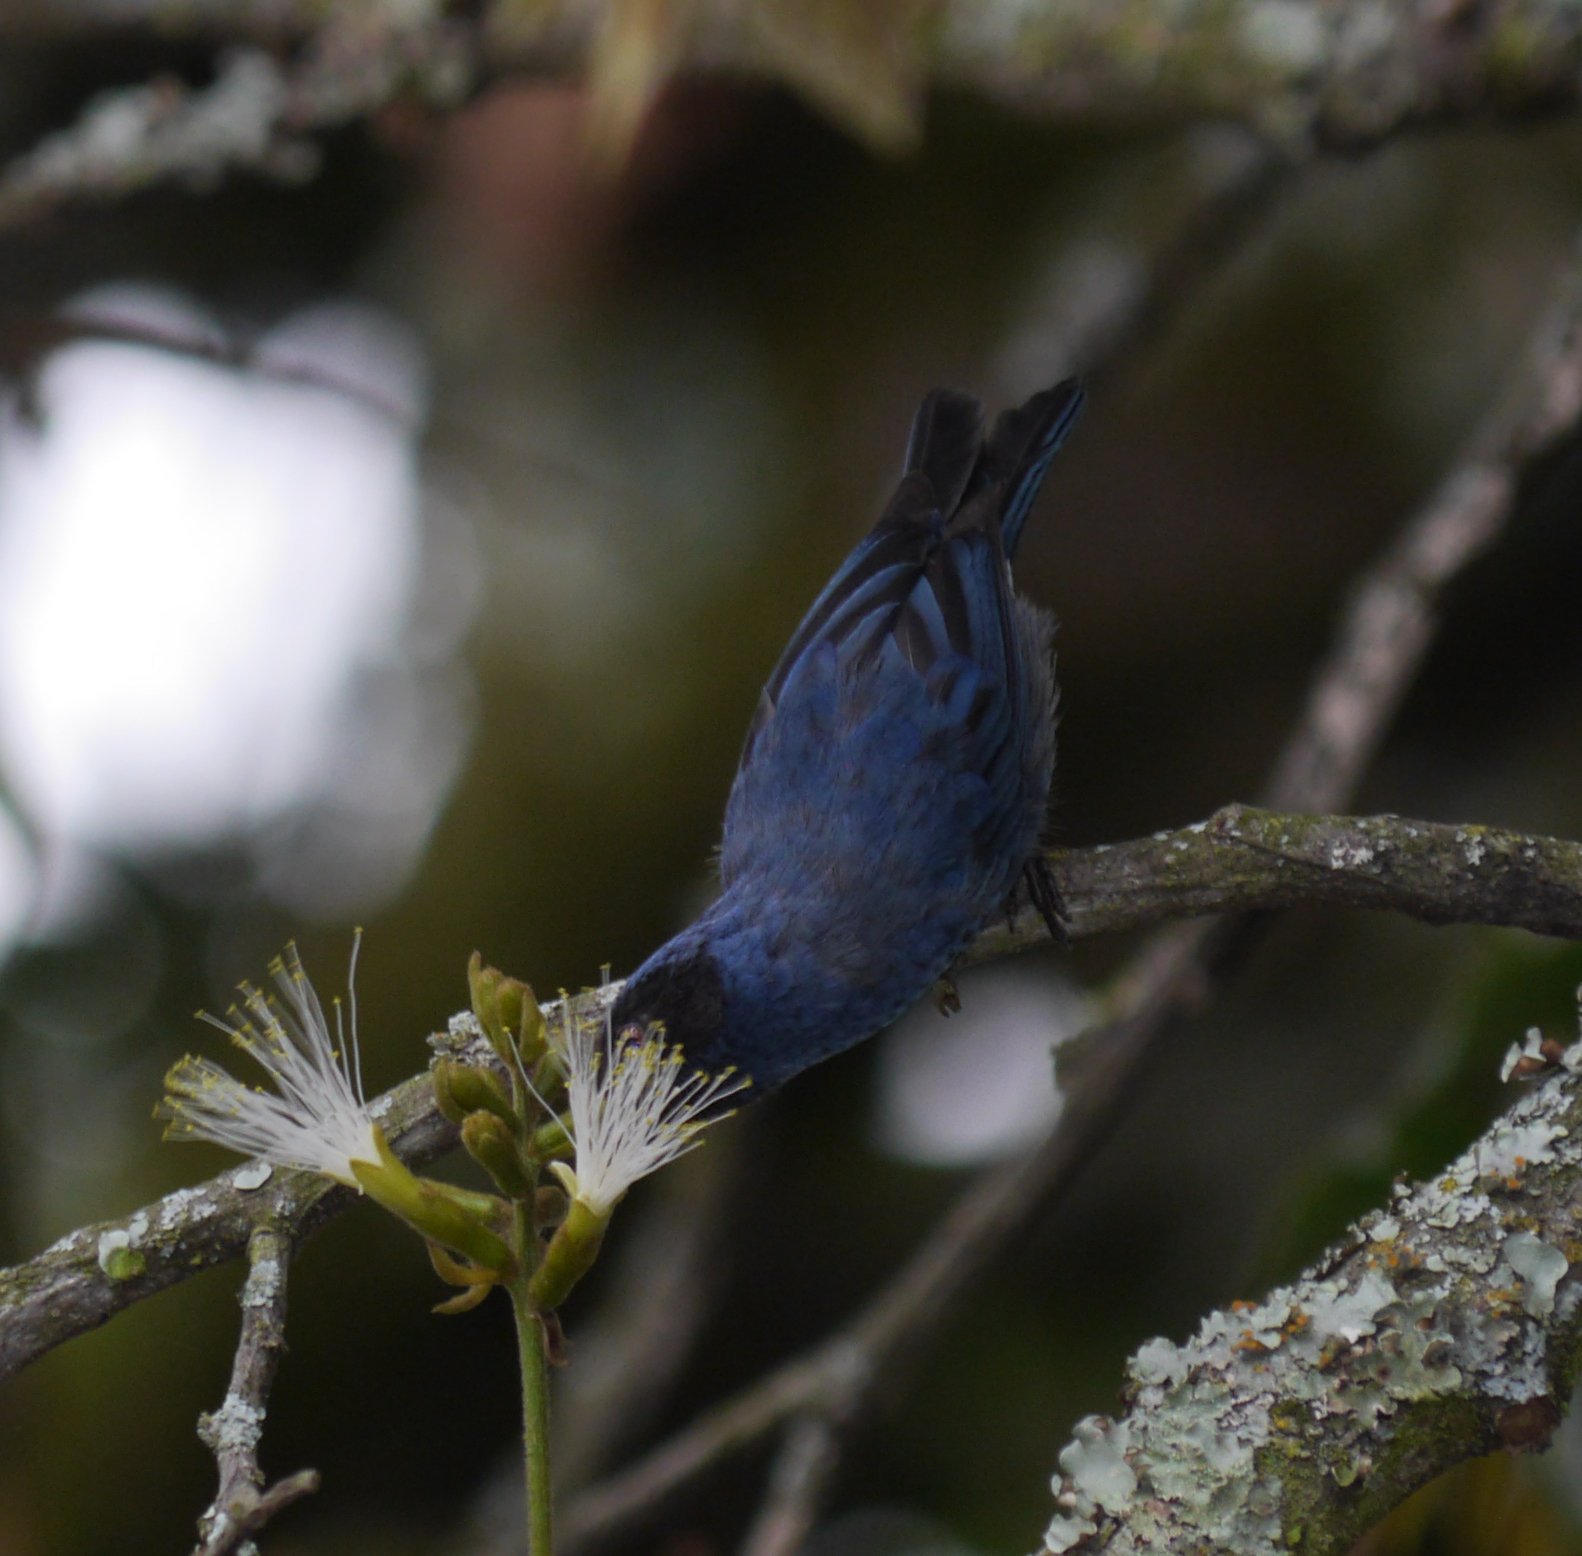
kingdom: Animalia
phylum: Chordata
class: Aves
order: Passeriformes
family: Thraupidae
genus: Diglossa
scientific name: Diglossa cyanea
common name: Masked flowerpiercer
